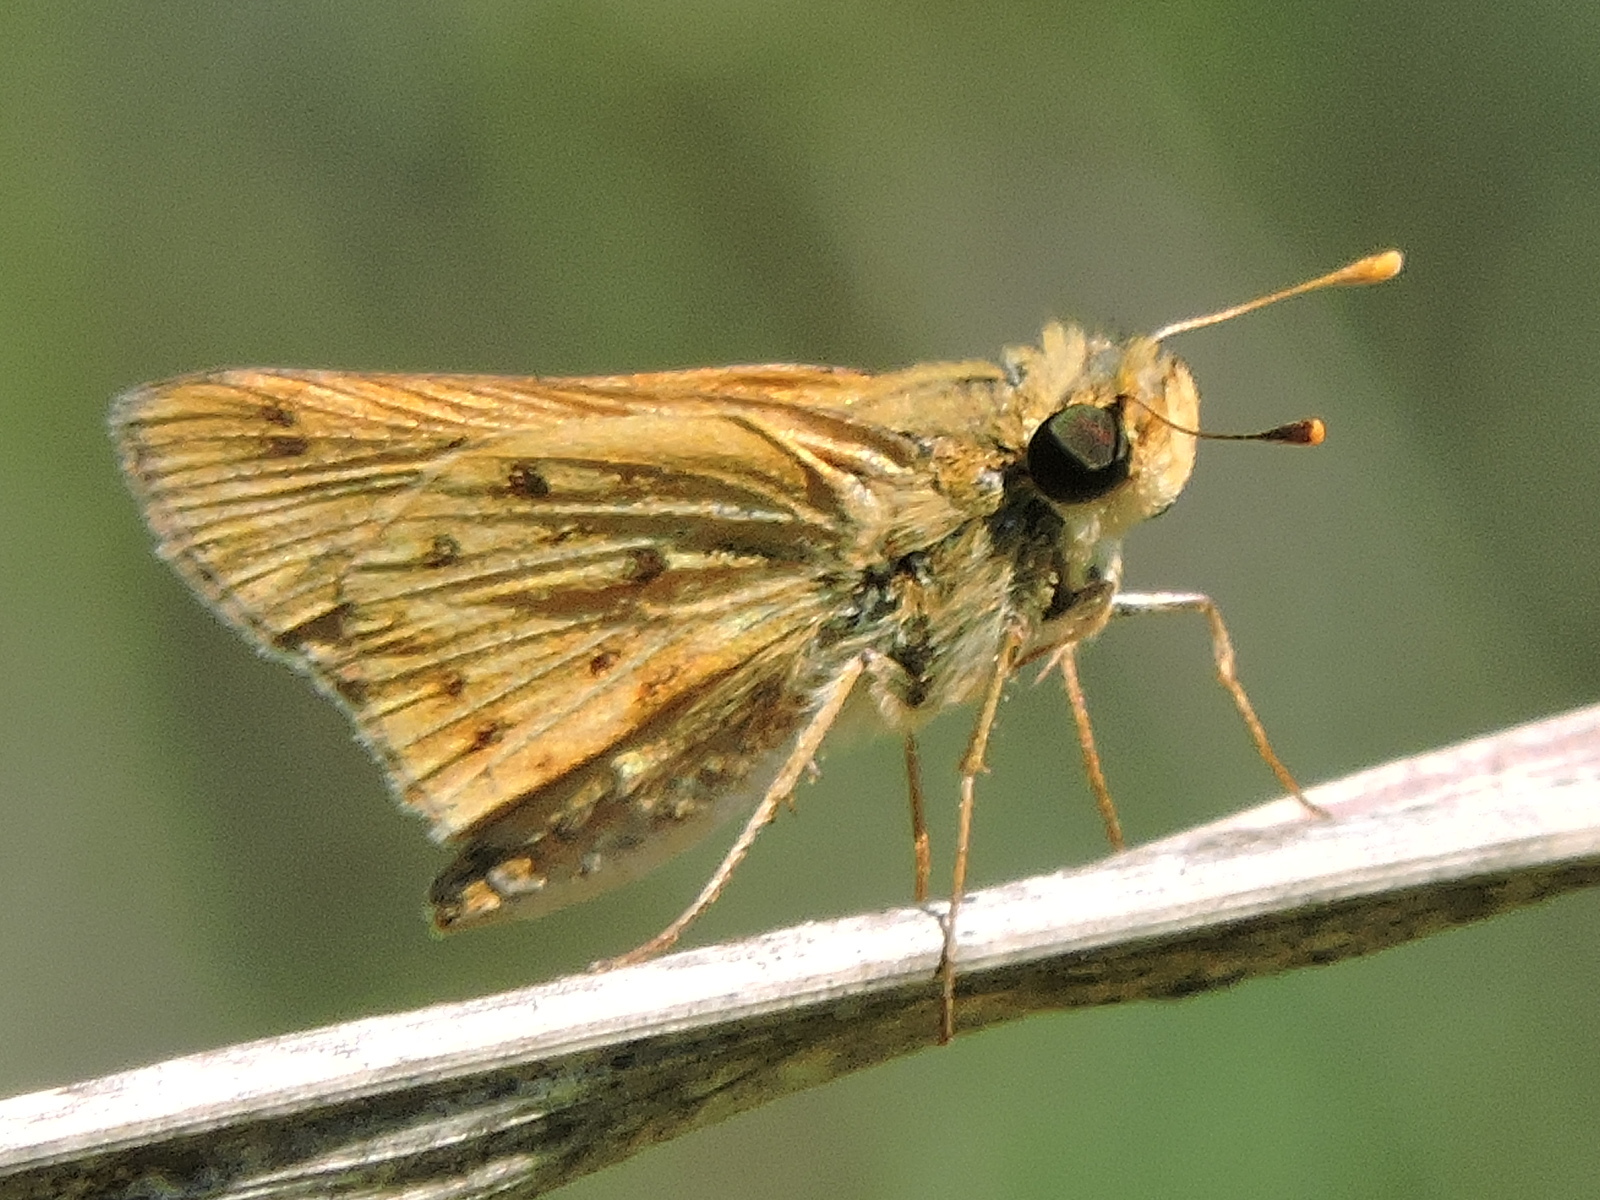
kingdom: Animalia
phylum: Arthropoda
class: Insecta
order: Lepidoptera
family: Hesperiidae
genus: Hylephila
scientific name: Hylephila phyleus
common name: Fiery skipper
